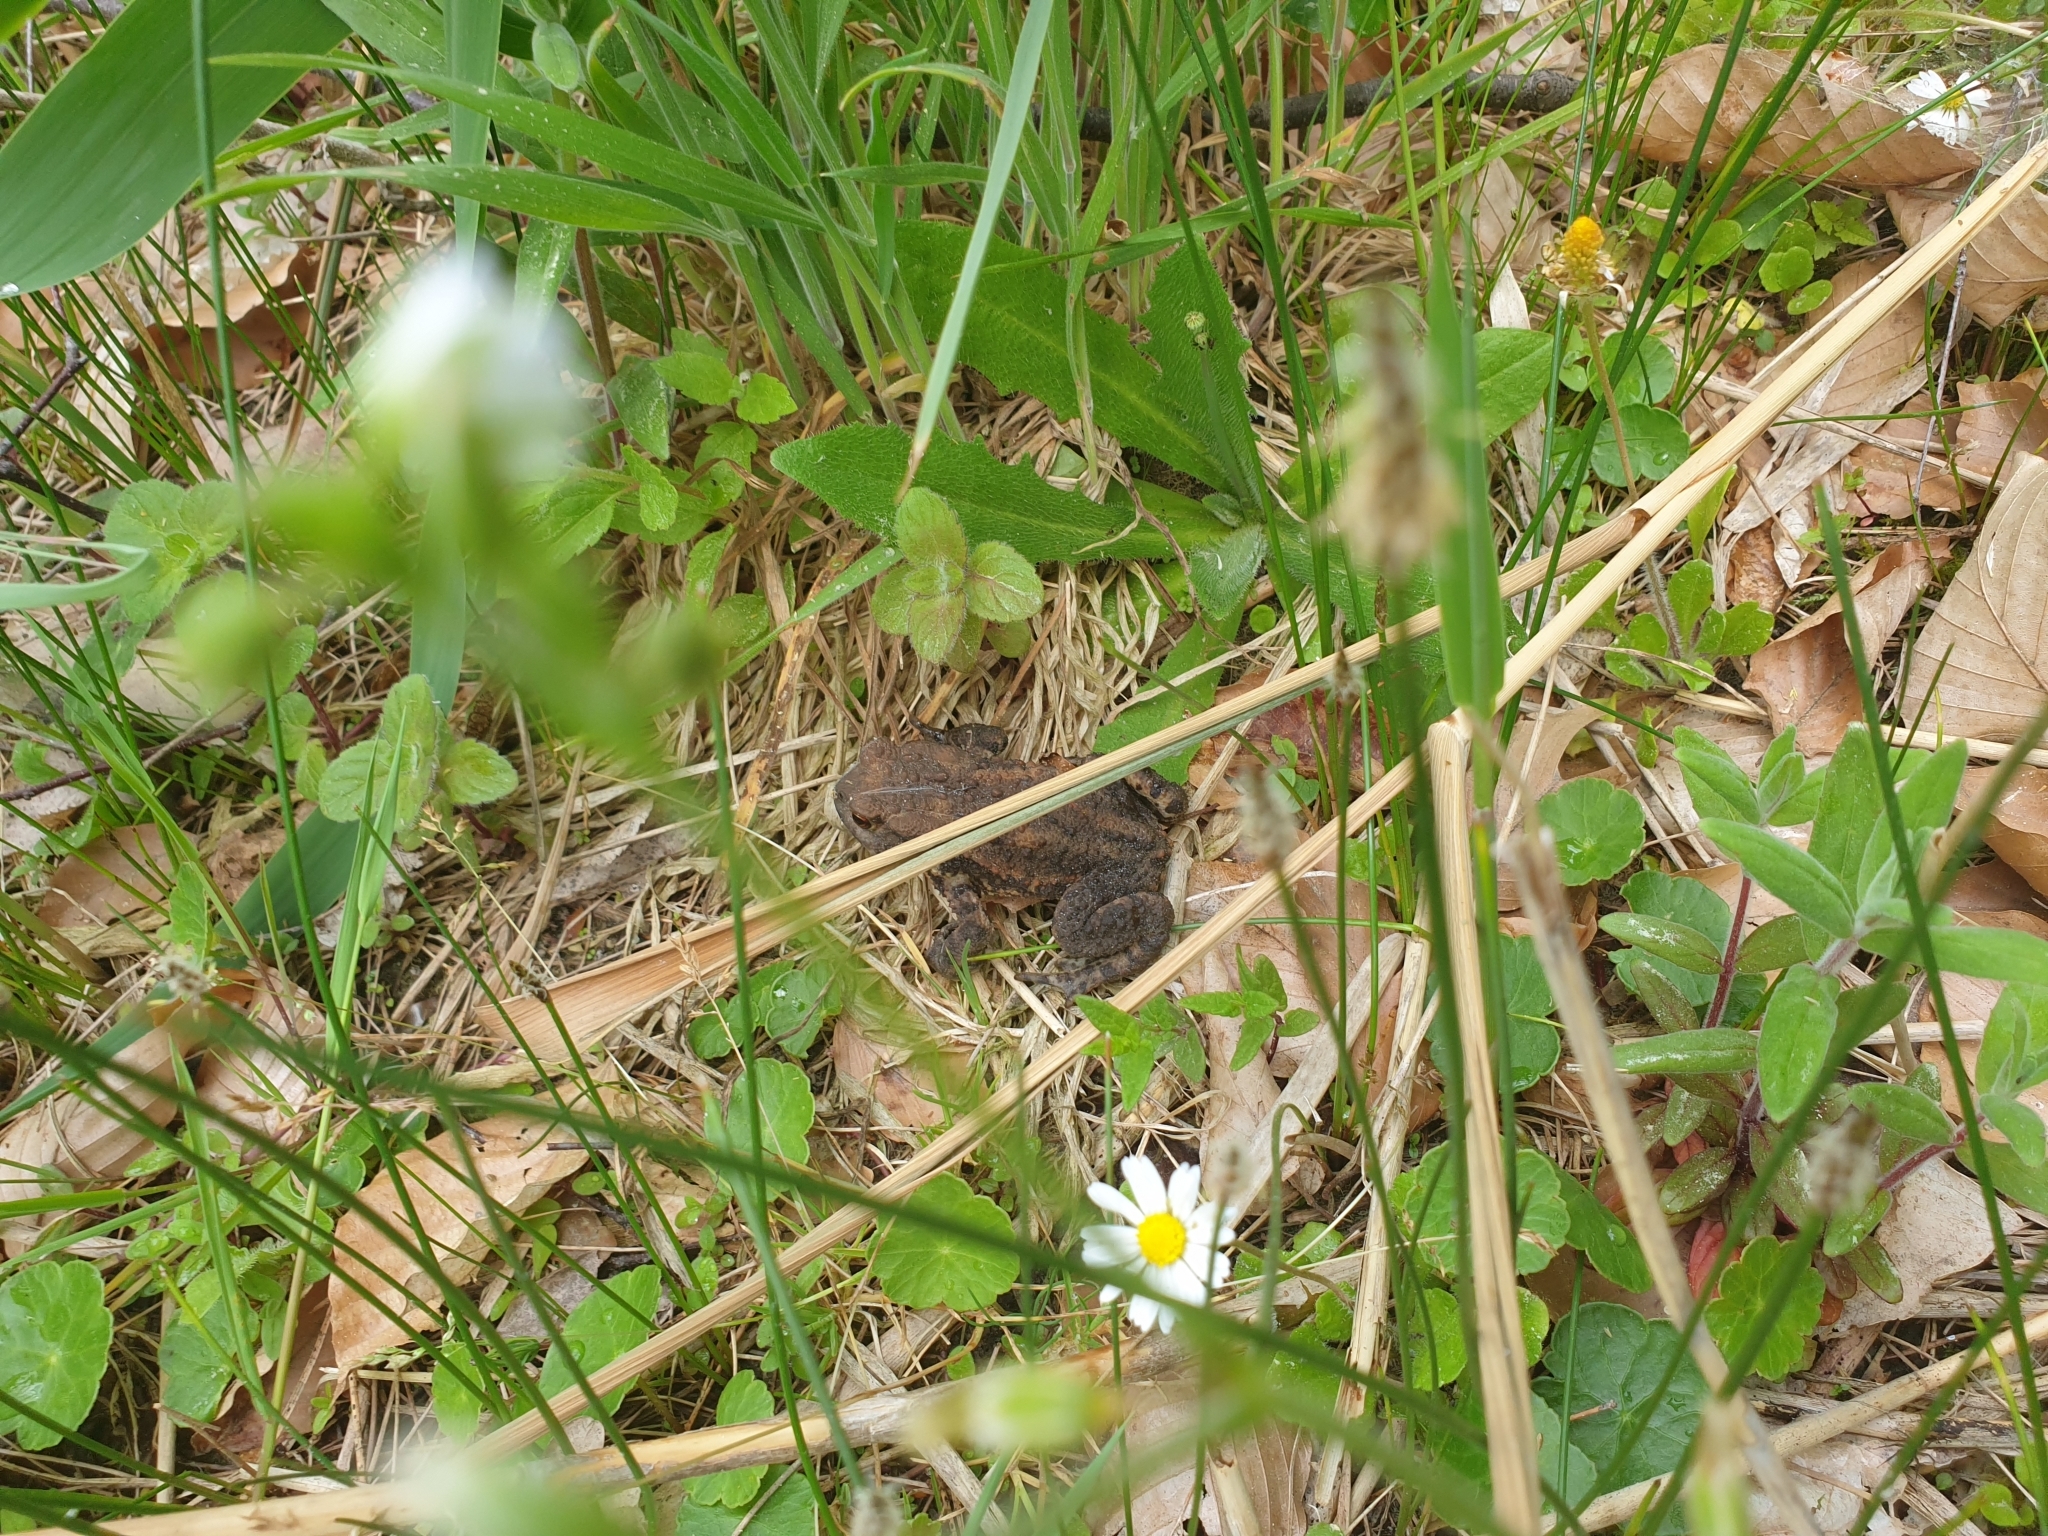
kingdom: Animalia
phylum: Chordata
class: Amphibia
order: Anura
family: Bufonidae
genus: Bufo
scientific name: Bufo bufo
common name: Common toad
